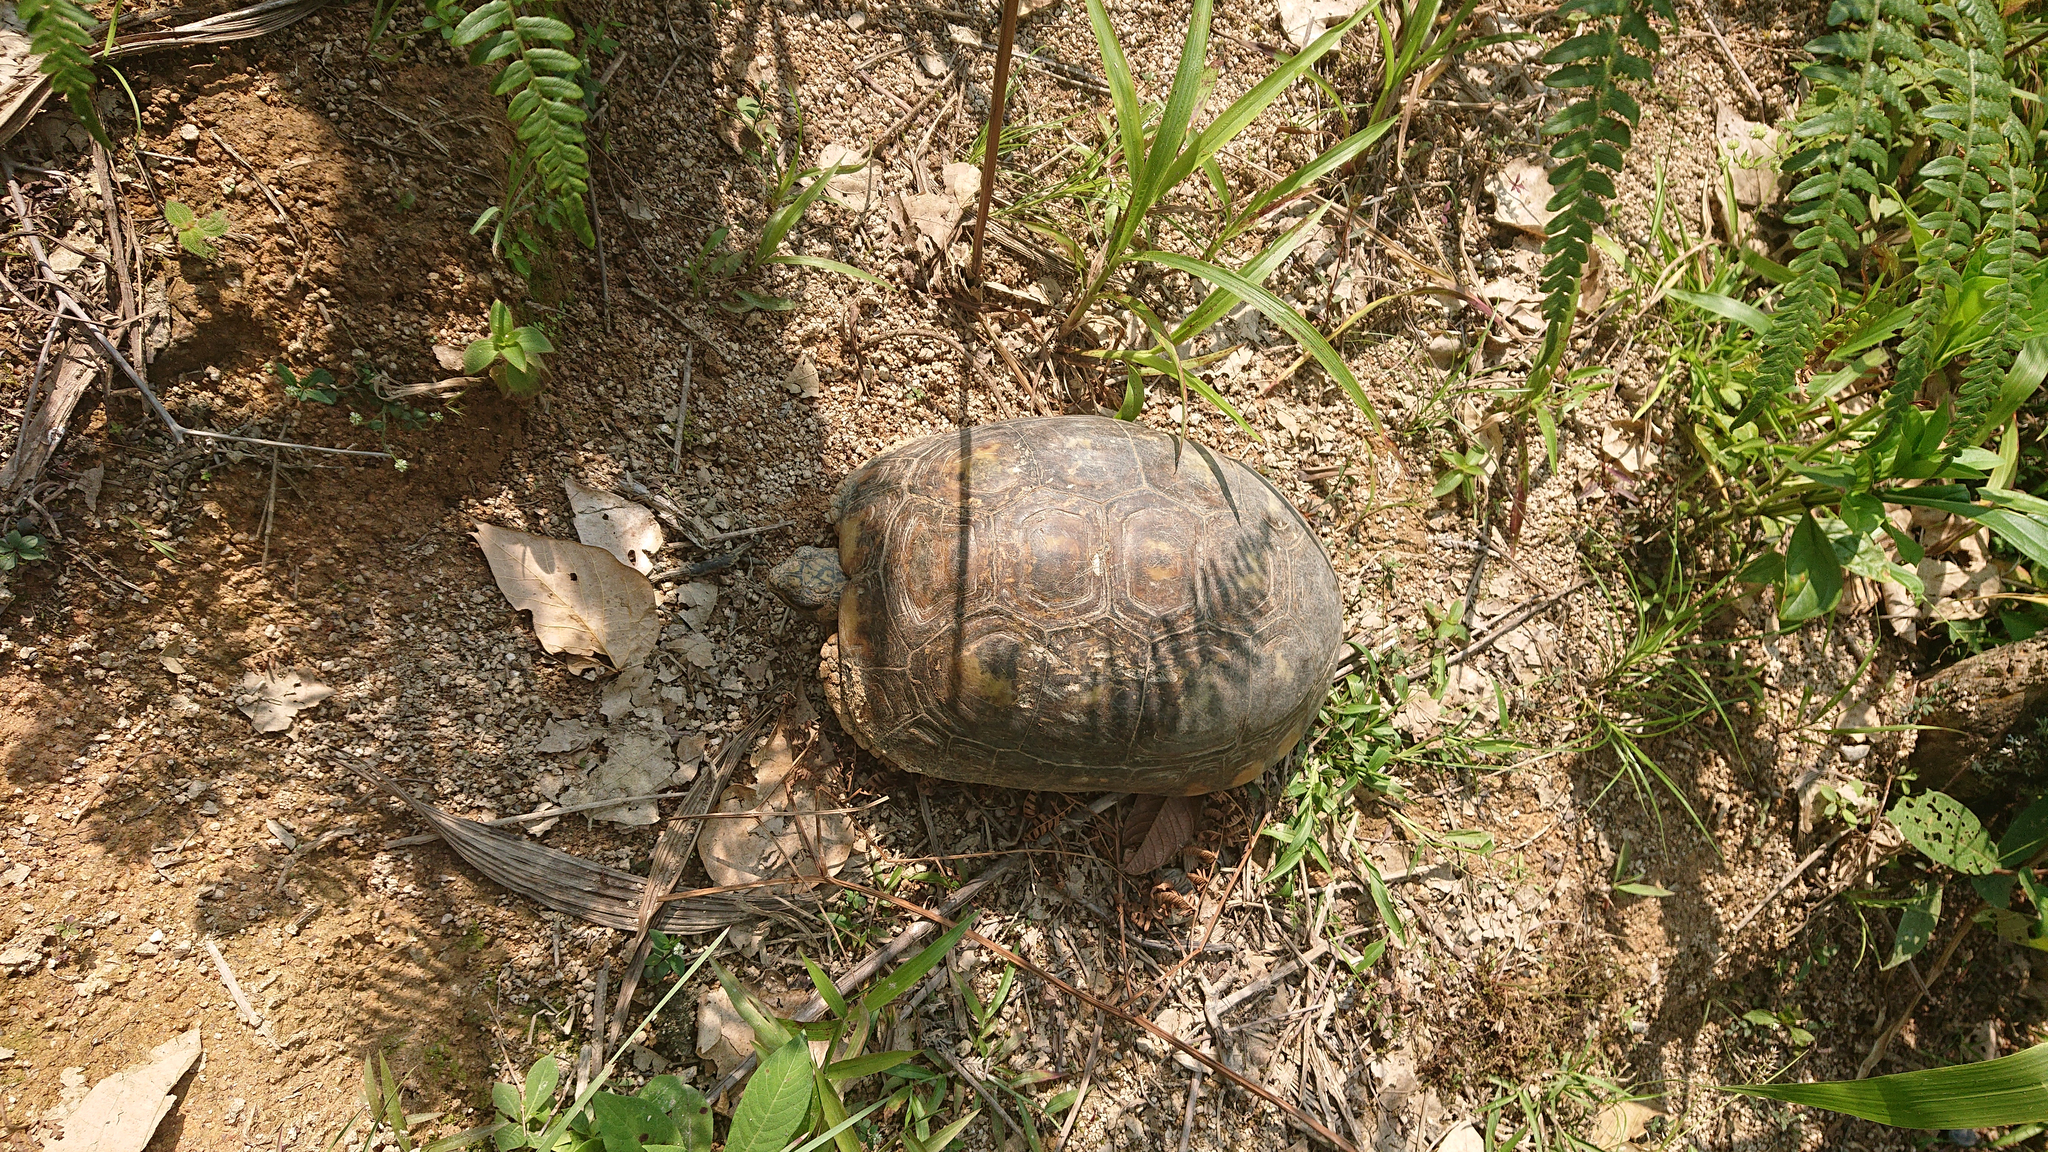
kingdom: Animalia
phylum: Chordata
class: Testudines
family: Testudinidae
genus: Chelonoidis
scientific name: Chelonoidis denticulatus
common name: Yellow-footed tortoise
